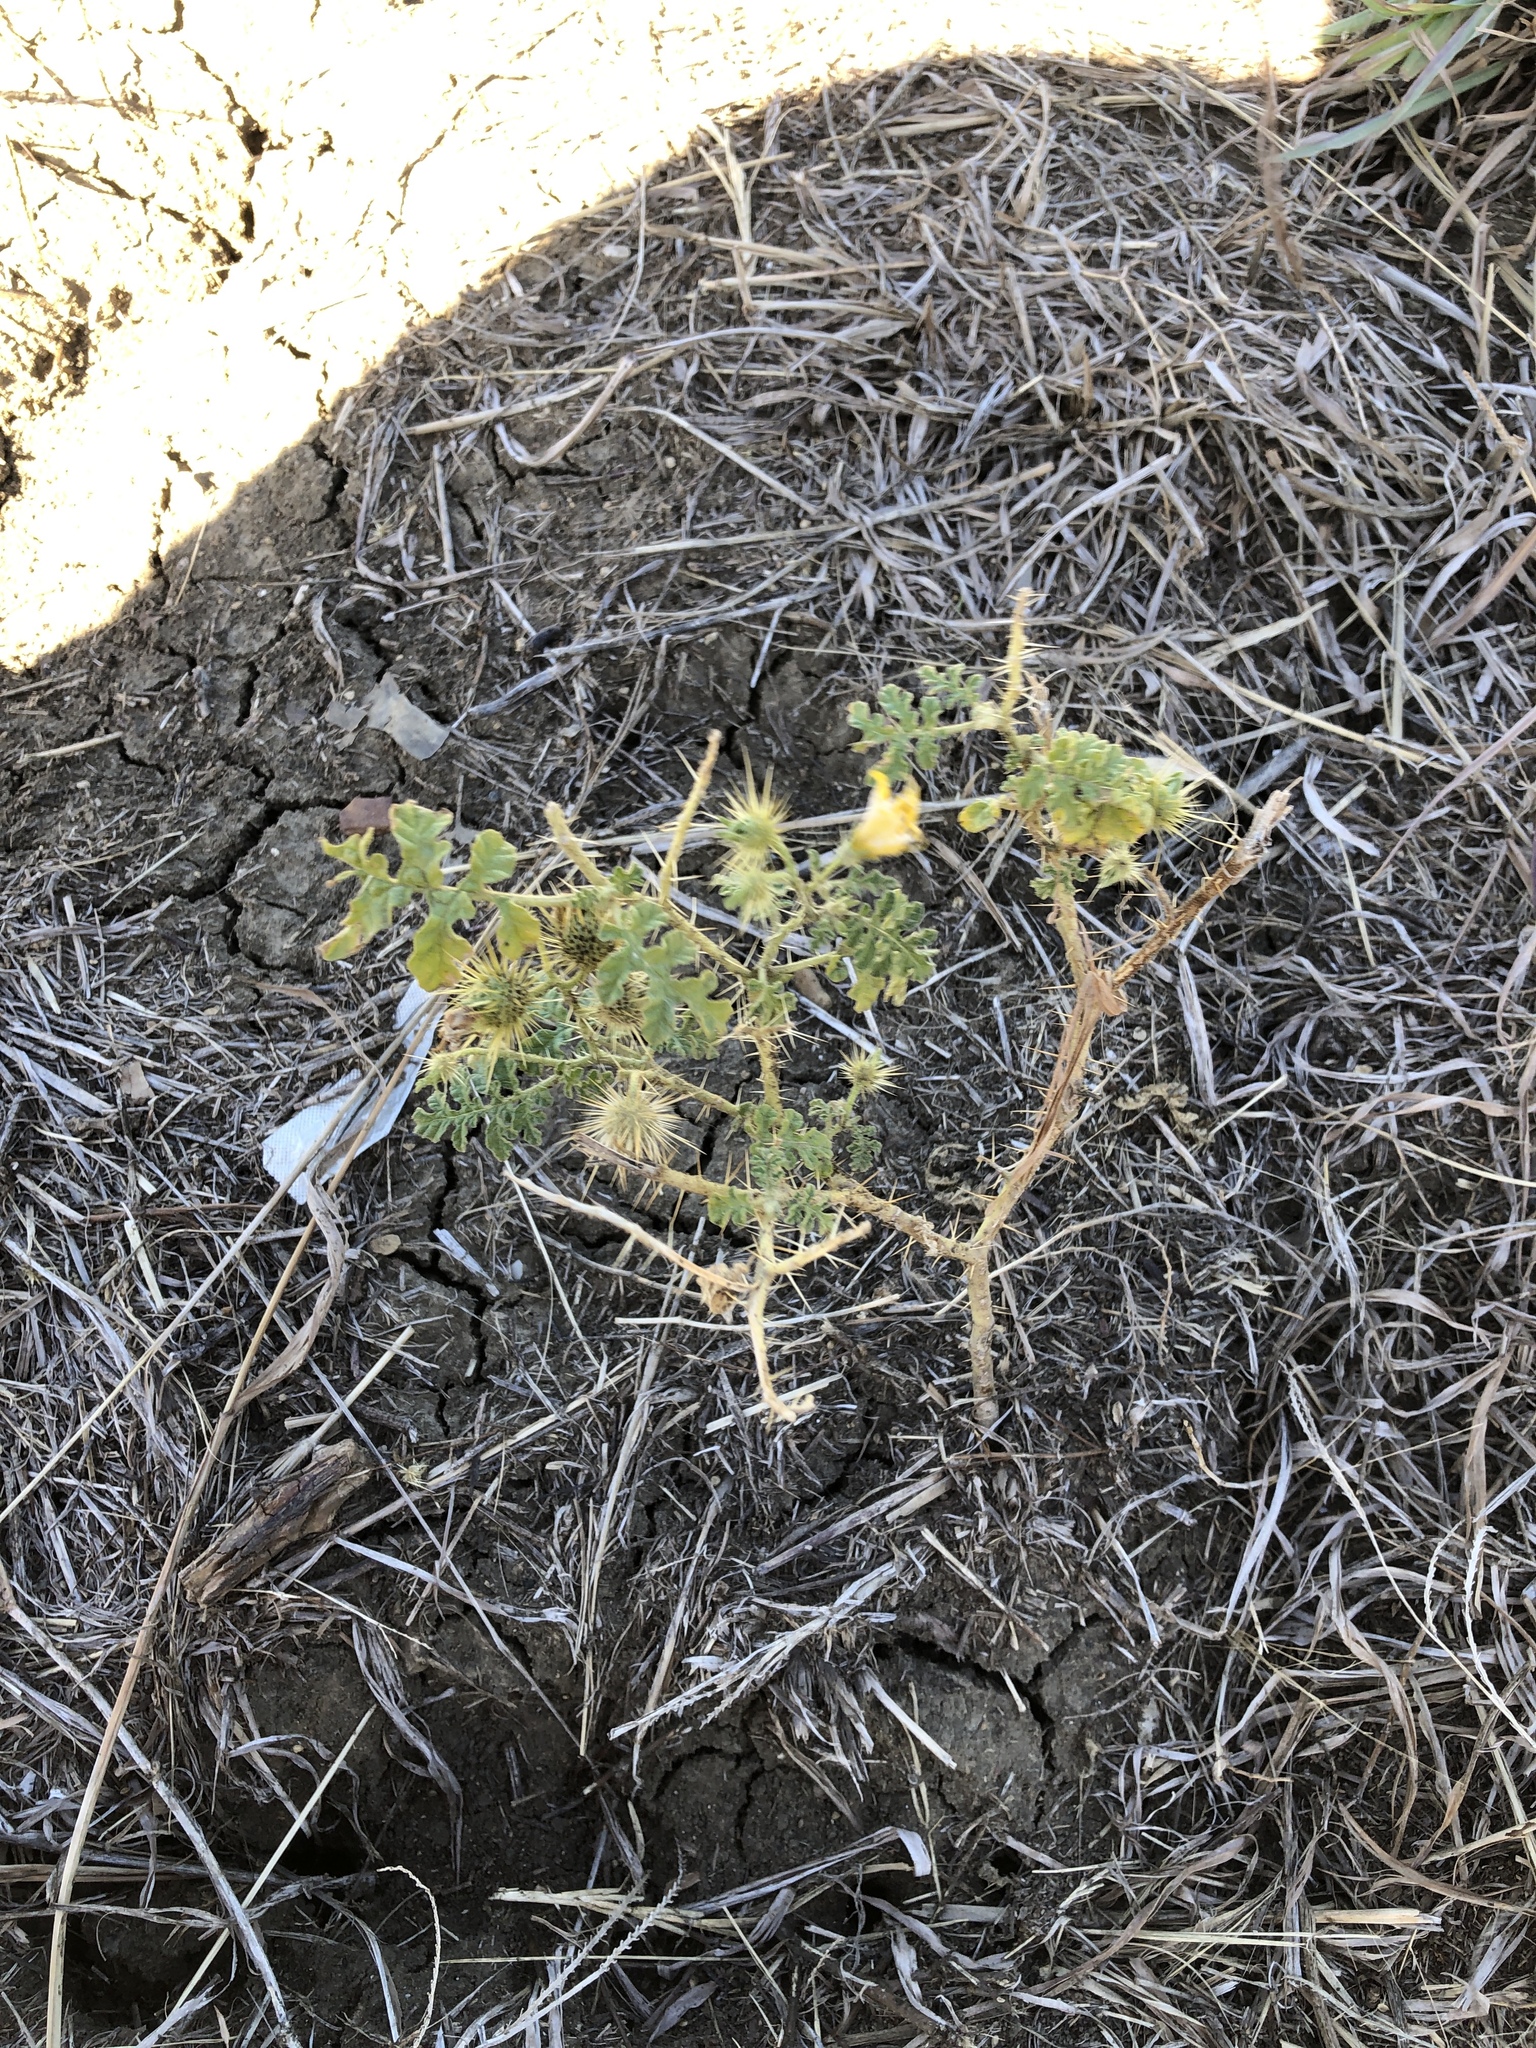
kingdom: Plantae
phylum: Tracheophyta
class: Magnoliopsida
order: Solanales
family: Solanaceae
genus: Solanum
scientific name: Solanum angustifolium
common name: Buffalobur nightshade
